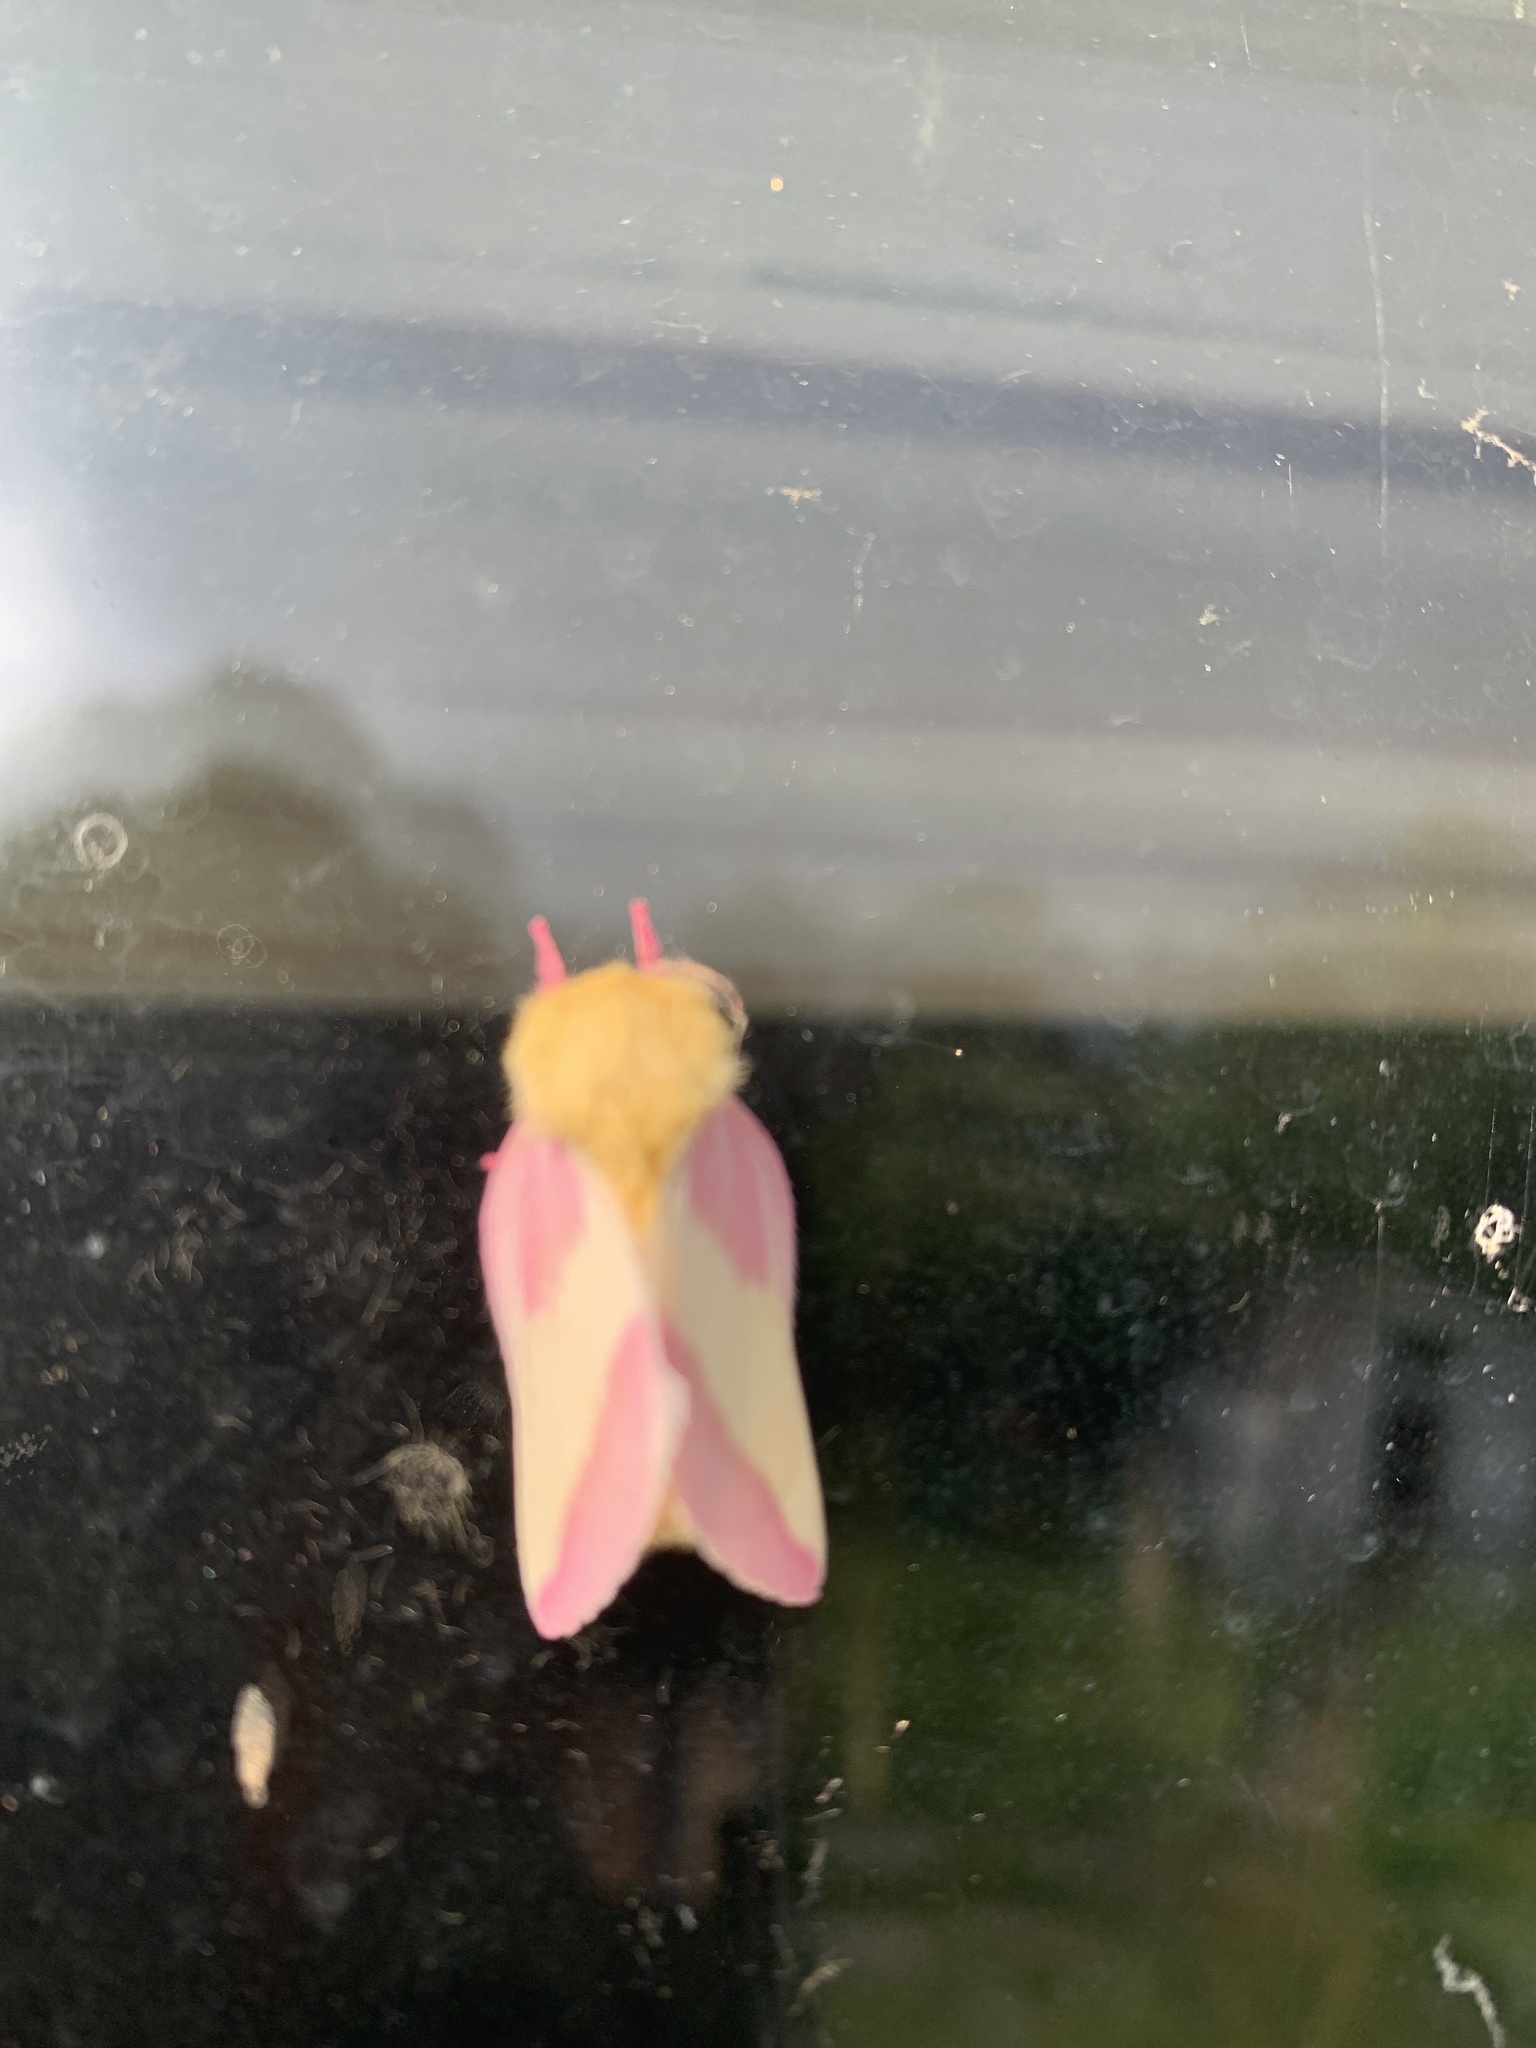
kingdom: Animalia
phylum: Arthropoda
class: Insecta
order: Lepidoptera
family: Saturniidae
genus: Dryocampa
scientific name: Dryocampa rubicunda
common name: Rosy maple moth
